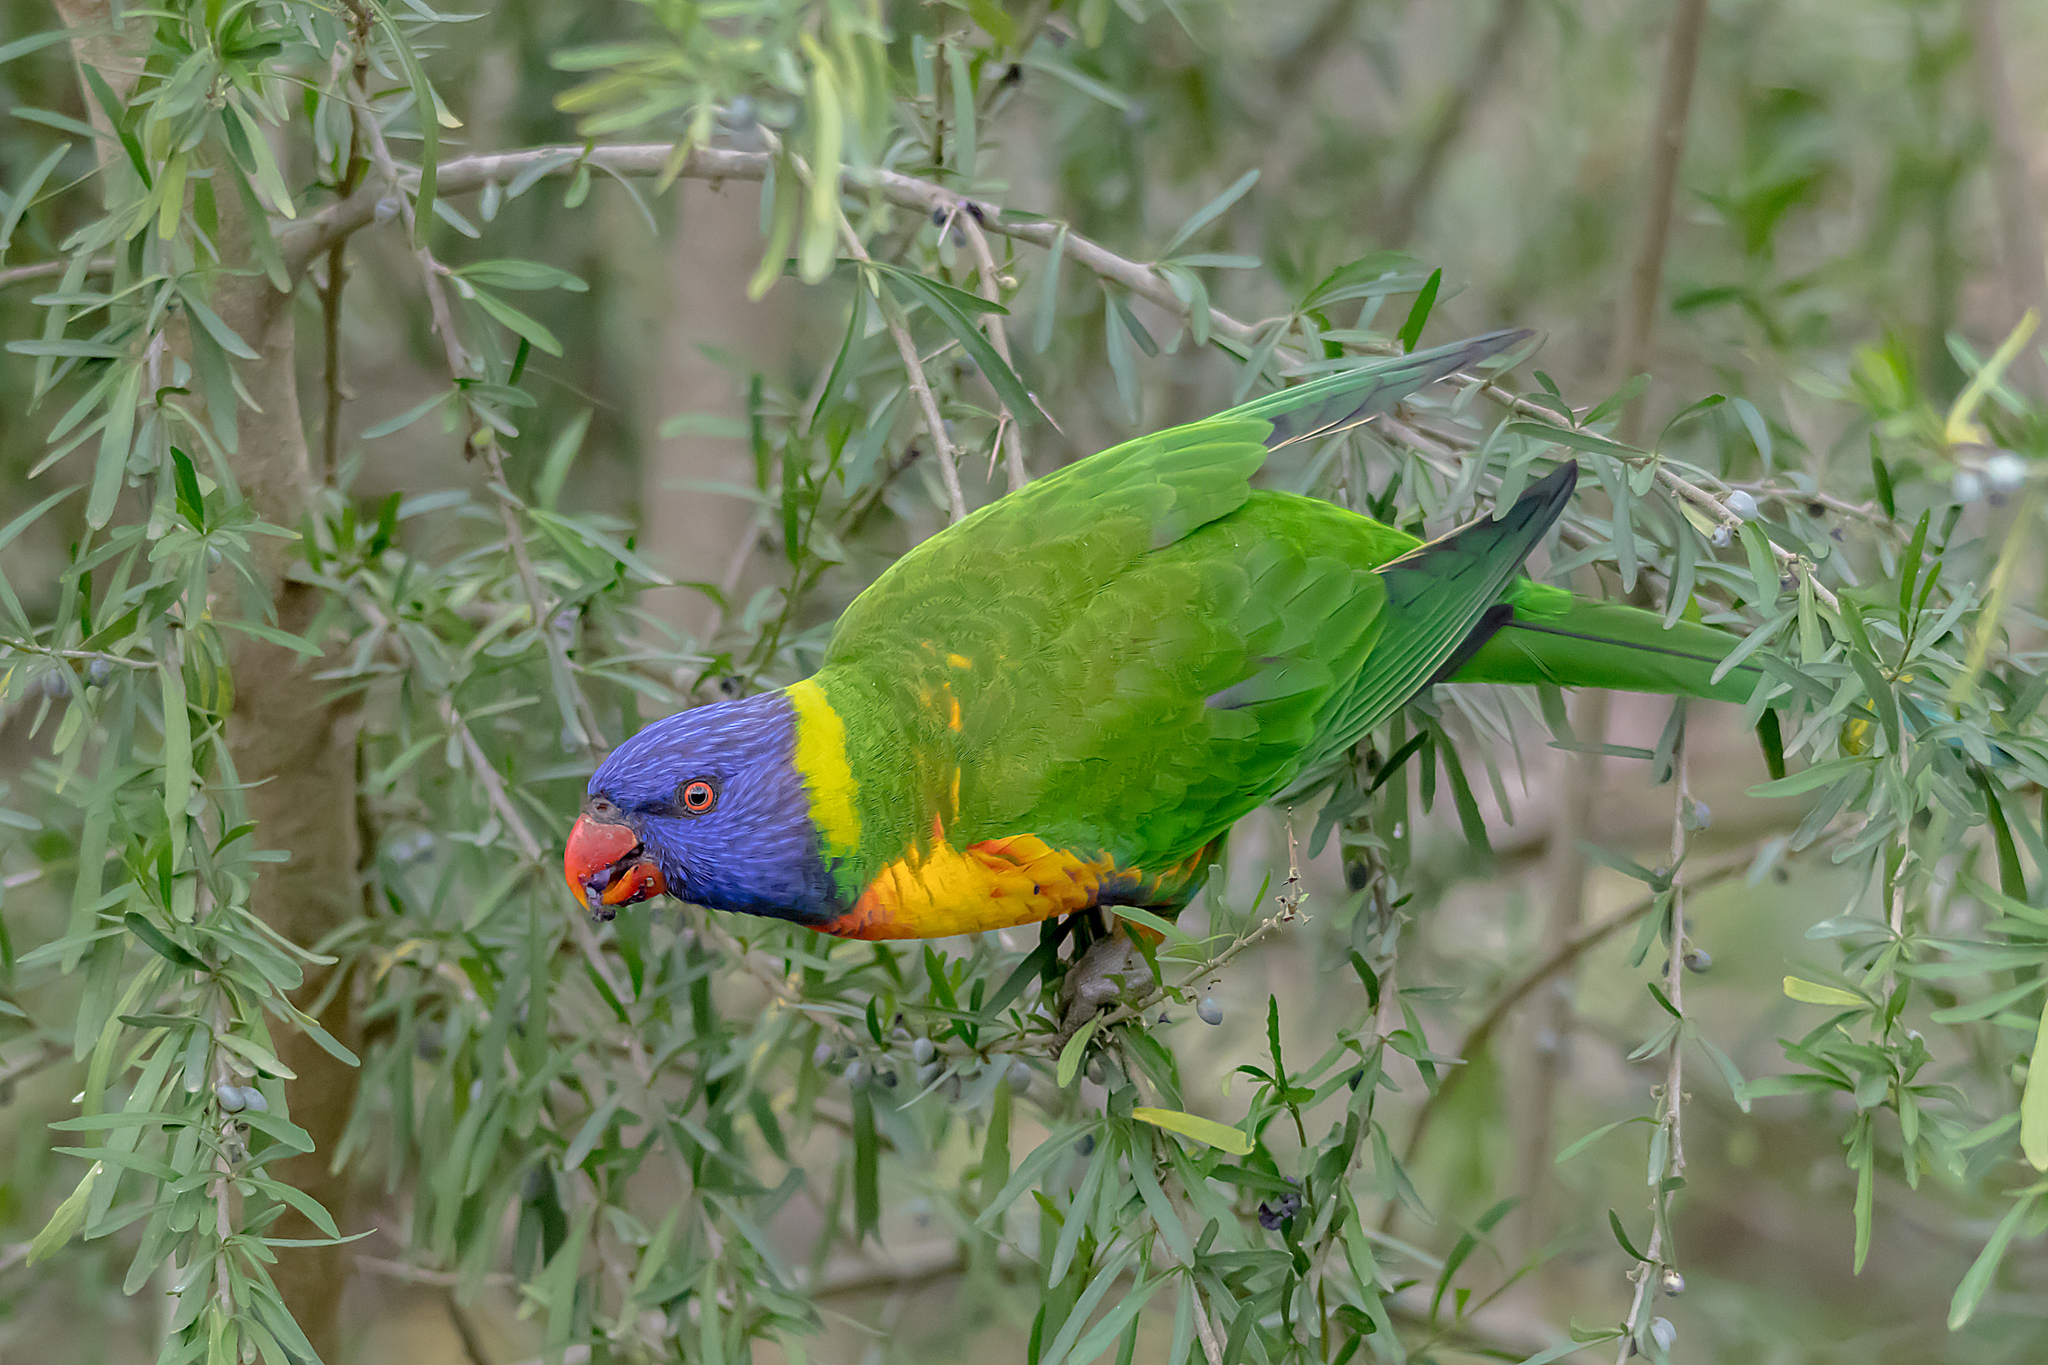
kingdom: Animalia
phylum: Chordata
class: Aves
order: Psittaciformes
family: Psittacidae
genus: Trichoglossus
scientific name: Trichoglossus haematodus
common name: Coconut lorikeet
